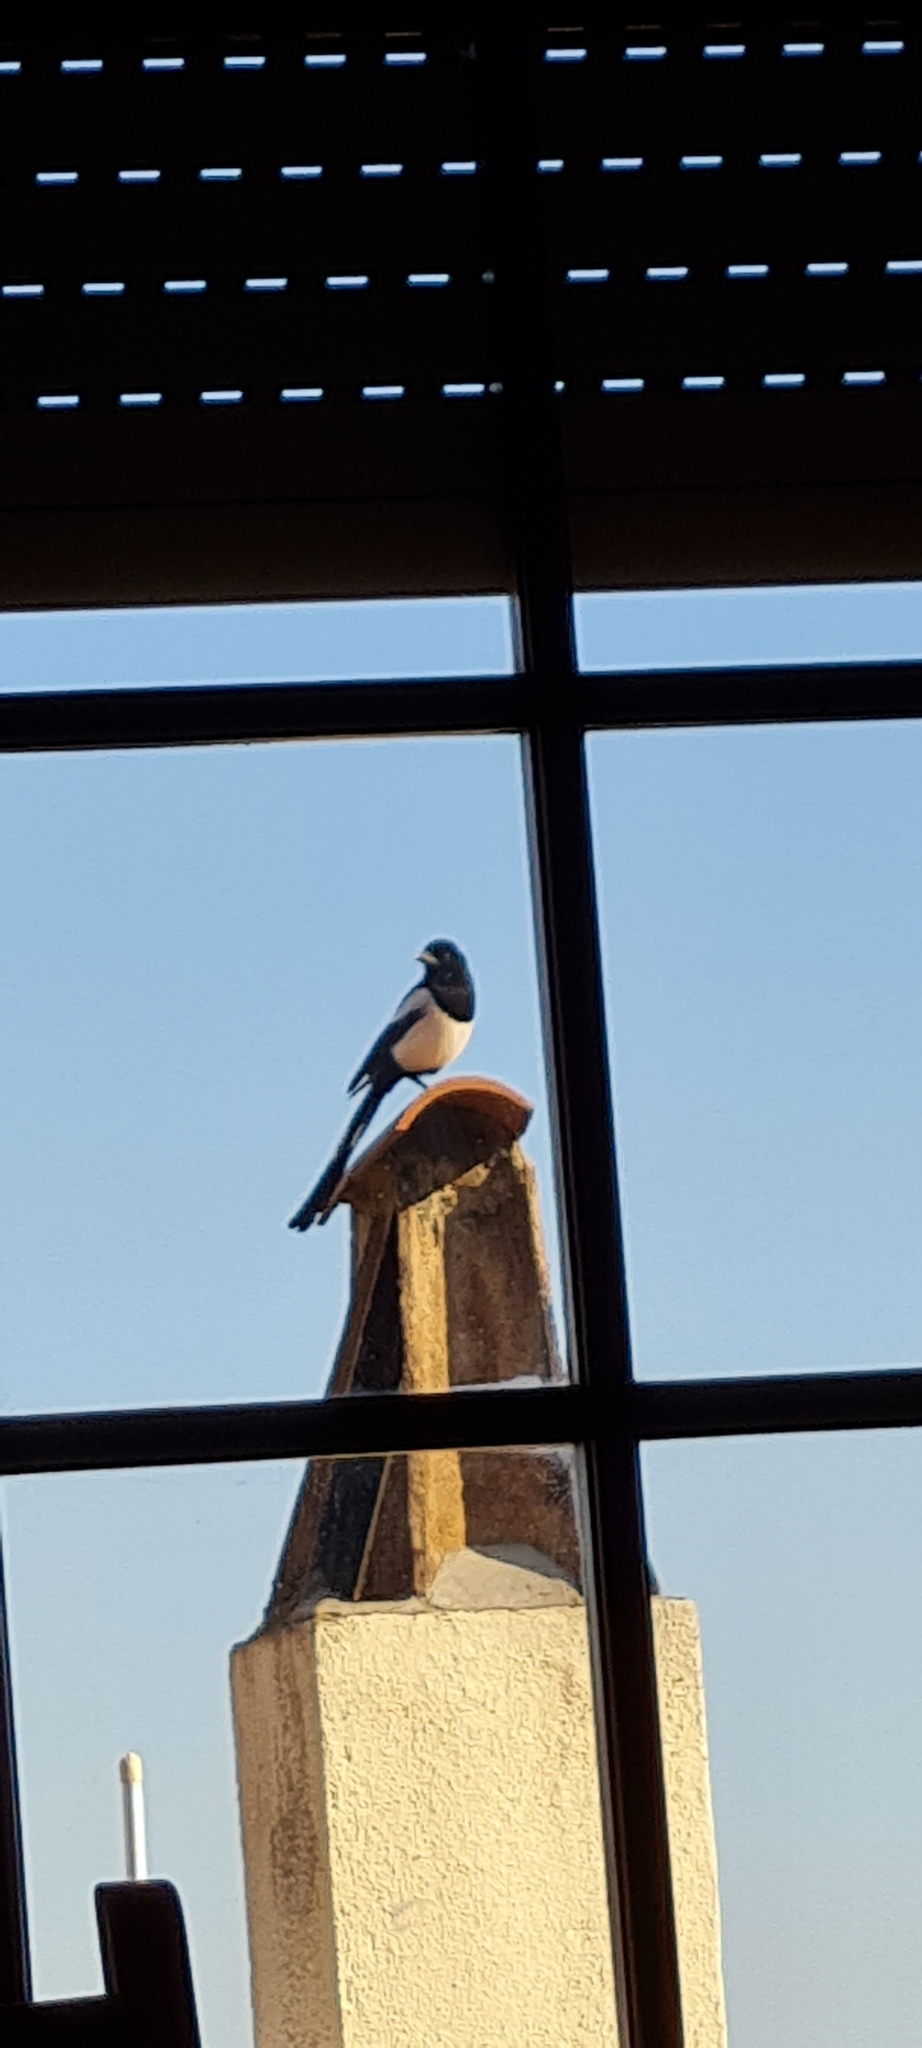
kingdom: Animalia
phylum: Chordata
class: Aves
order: Passeriformes
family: Corvidae
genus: Pica
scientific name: Pica pica
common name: Eurasian magpie
